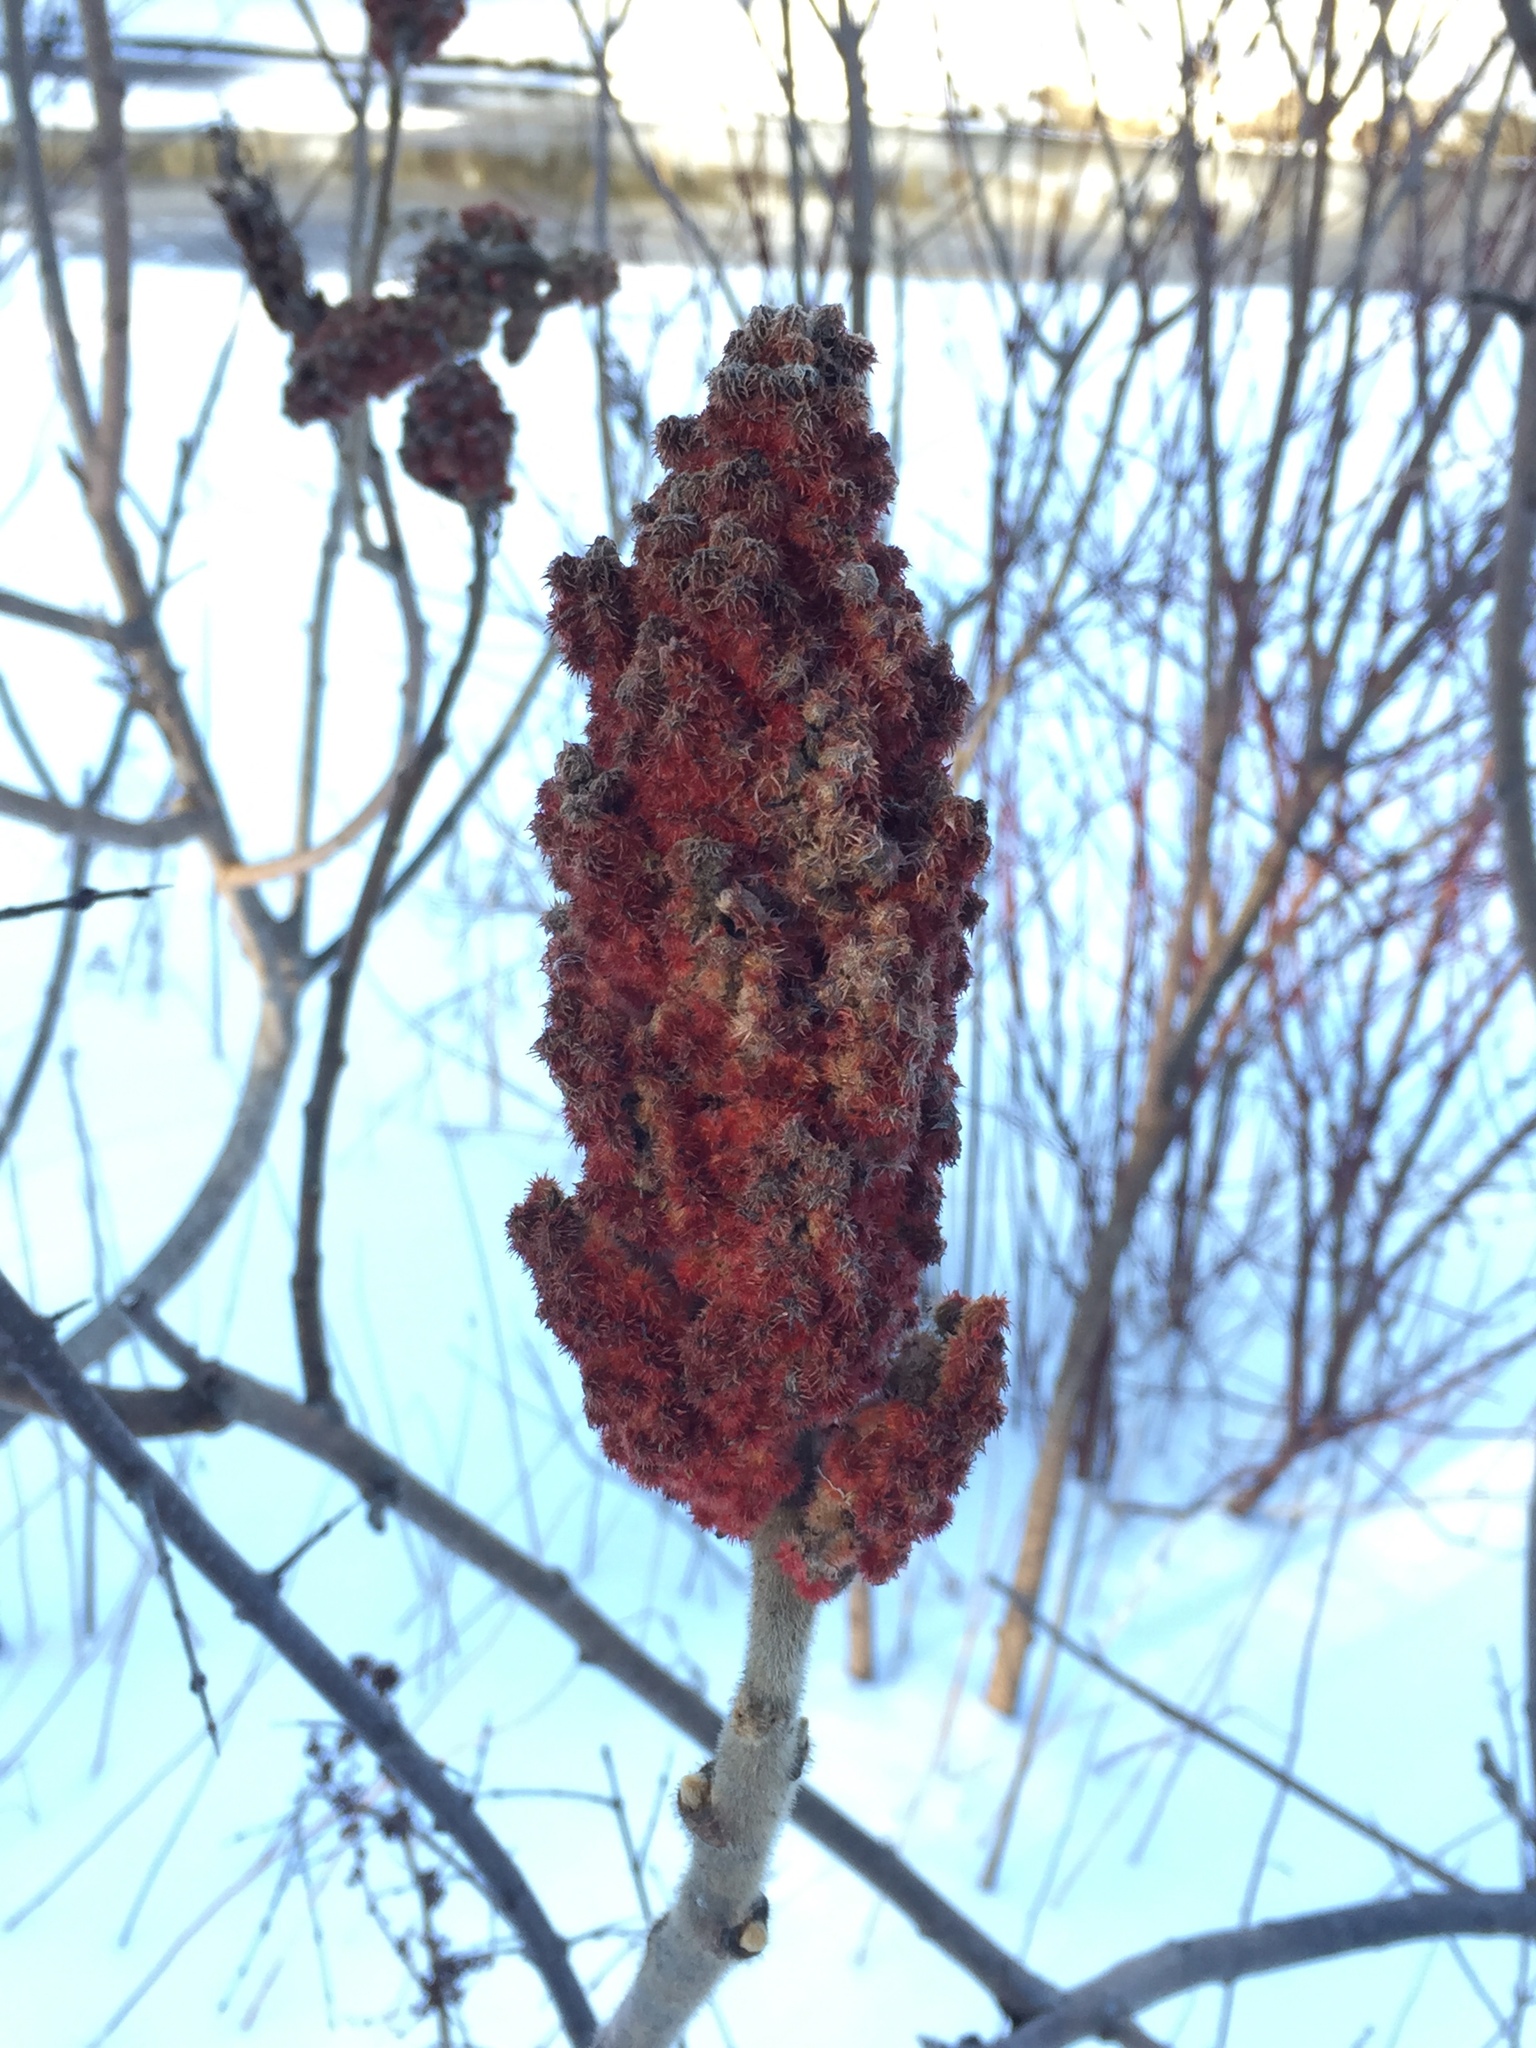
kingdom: Plantae
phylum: Tracheophyta
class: Magnoliopsida
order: Sapindales
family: Anacardiaceae
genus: Rhus
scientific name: Rhus typhina
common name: Staghorn sumac
